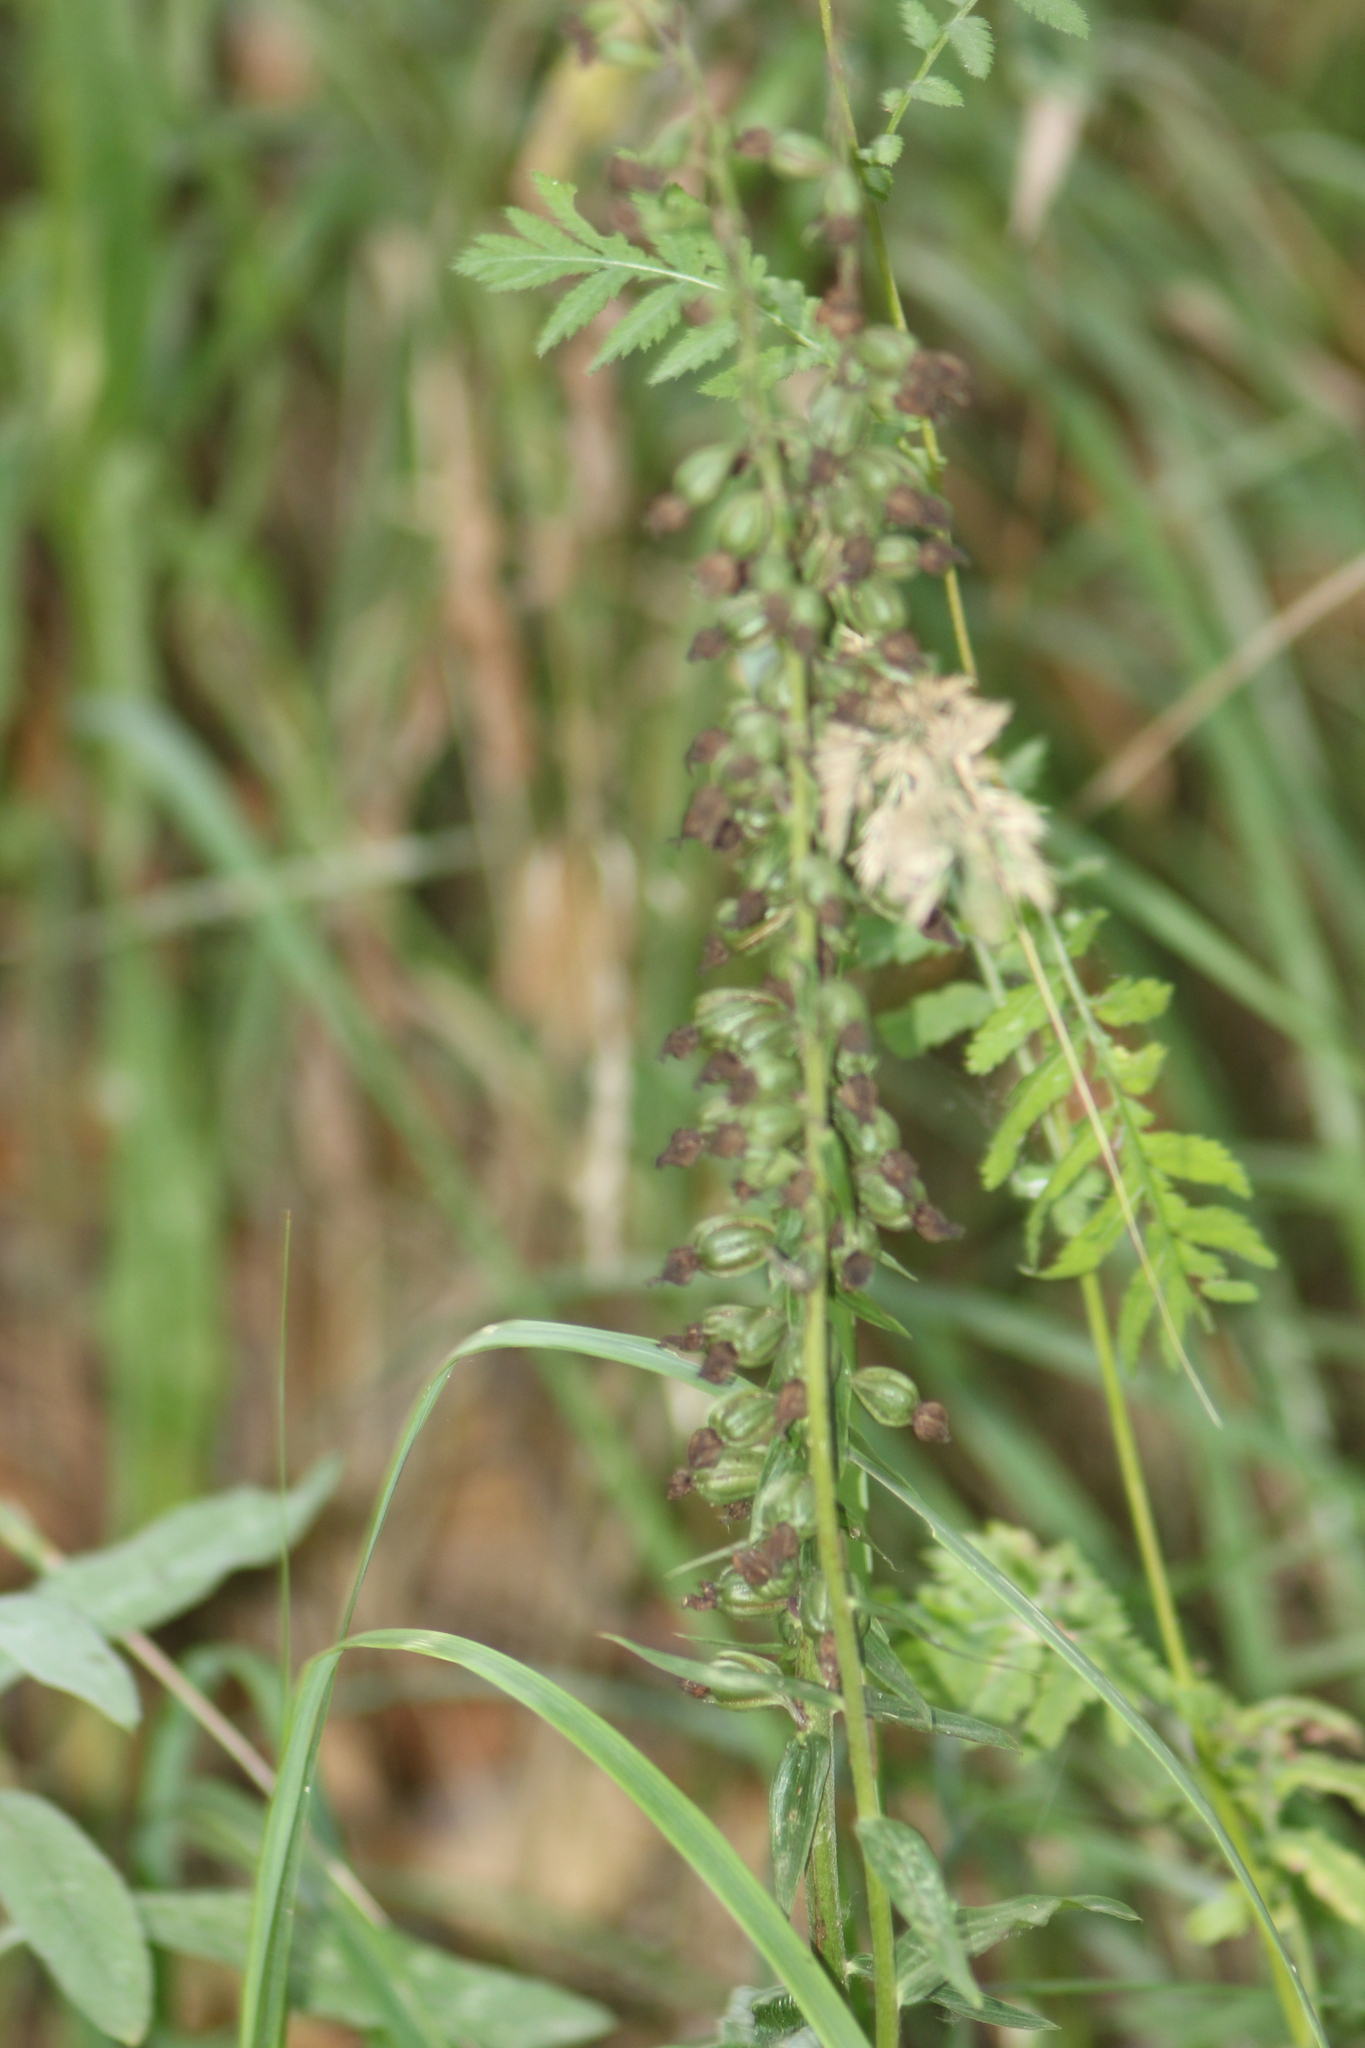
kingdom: Plantae
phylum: Tracheophyta
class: Liliopsida
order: Asparagales
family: Orchidaceae
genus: Epipactis
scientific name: Epipactis helleborine
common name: Broad-leaved helleborine
